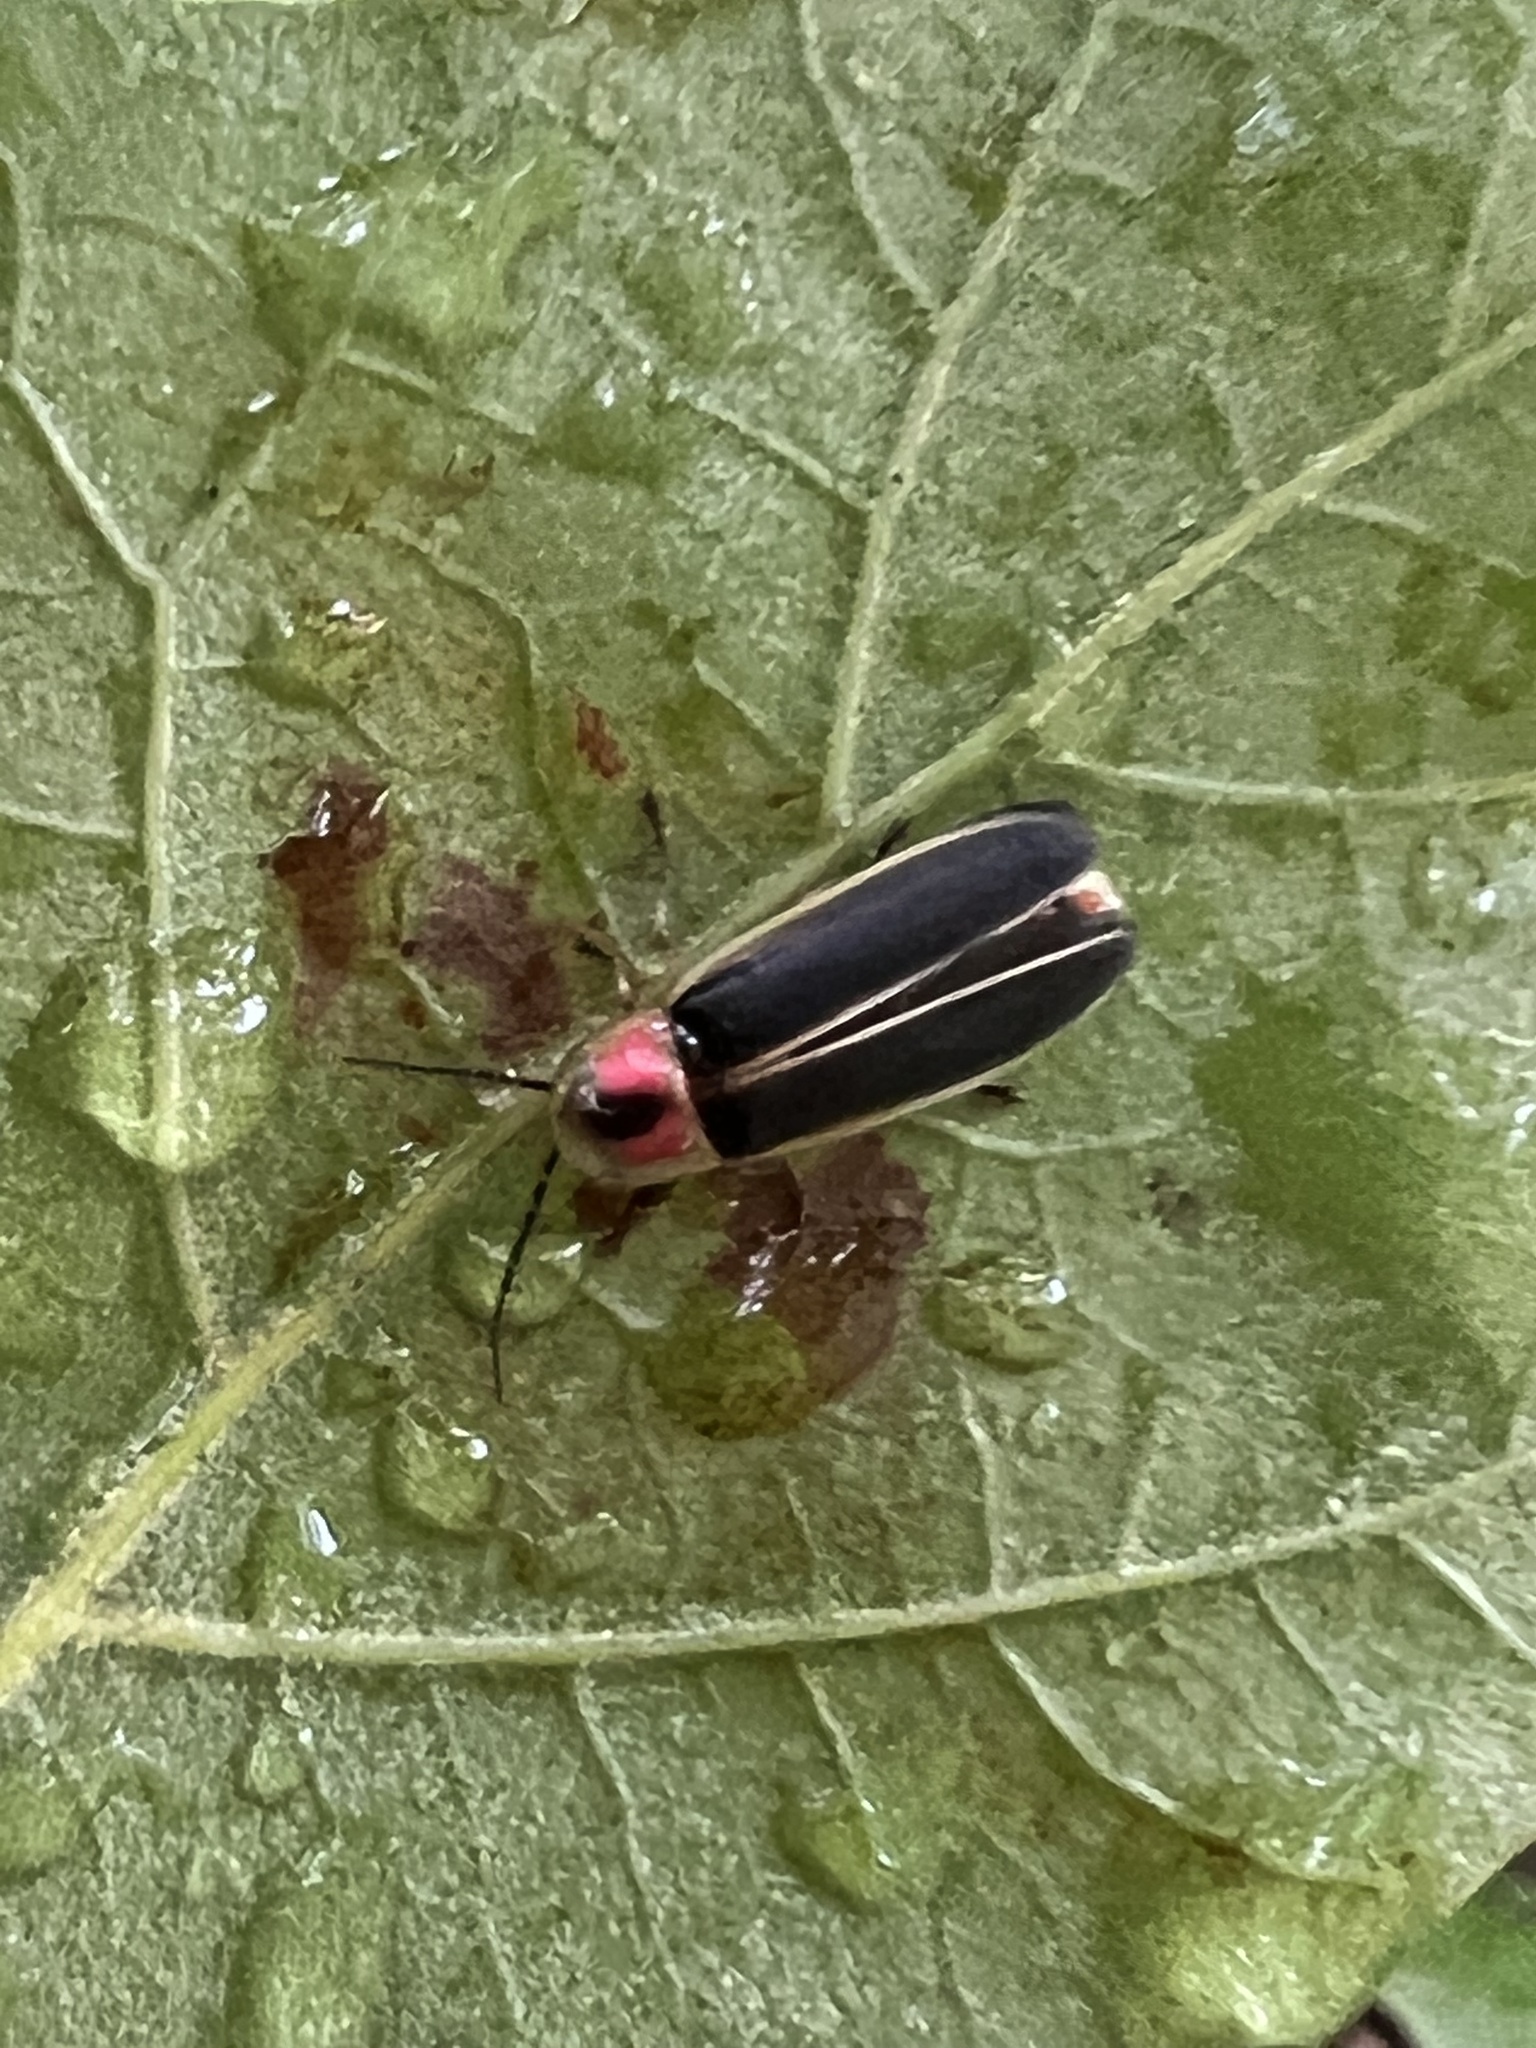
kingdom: Animalia
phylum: Arthropoda
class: Insecta
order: Coleoptera
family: Lampyridae
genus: Photinus
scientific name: Photinus pyralis
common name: Big dipper firefly
